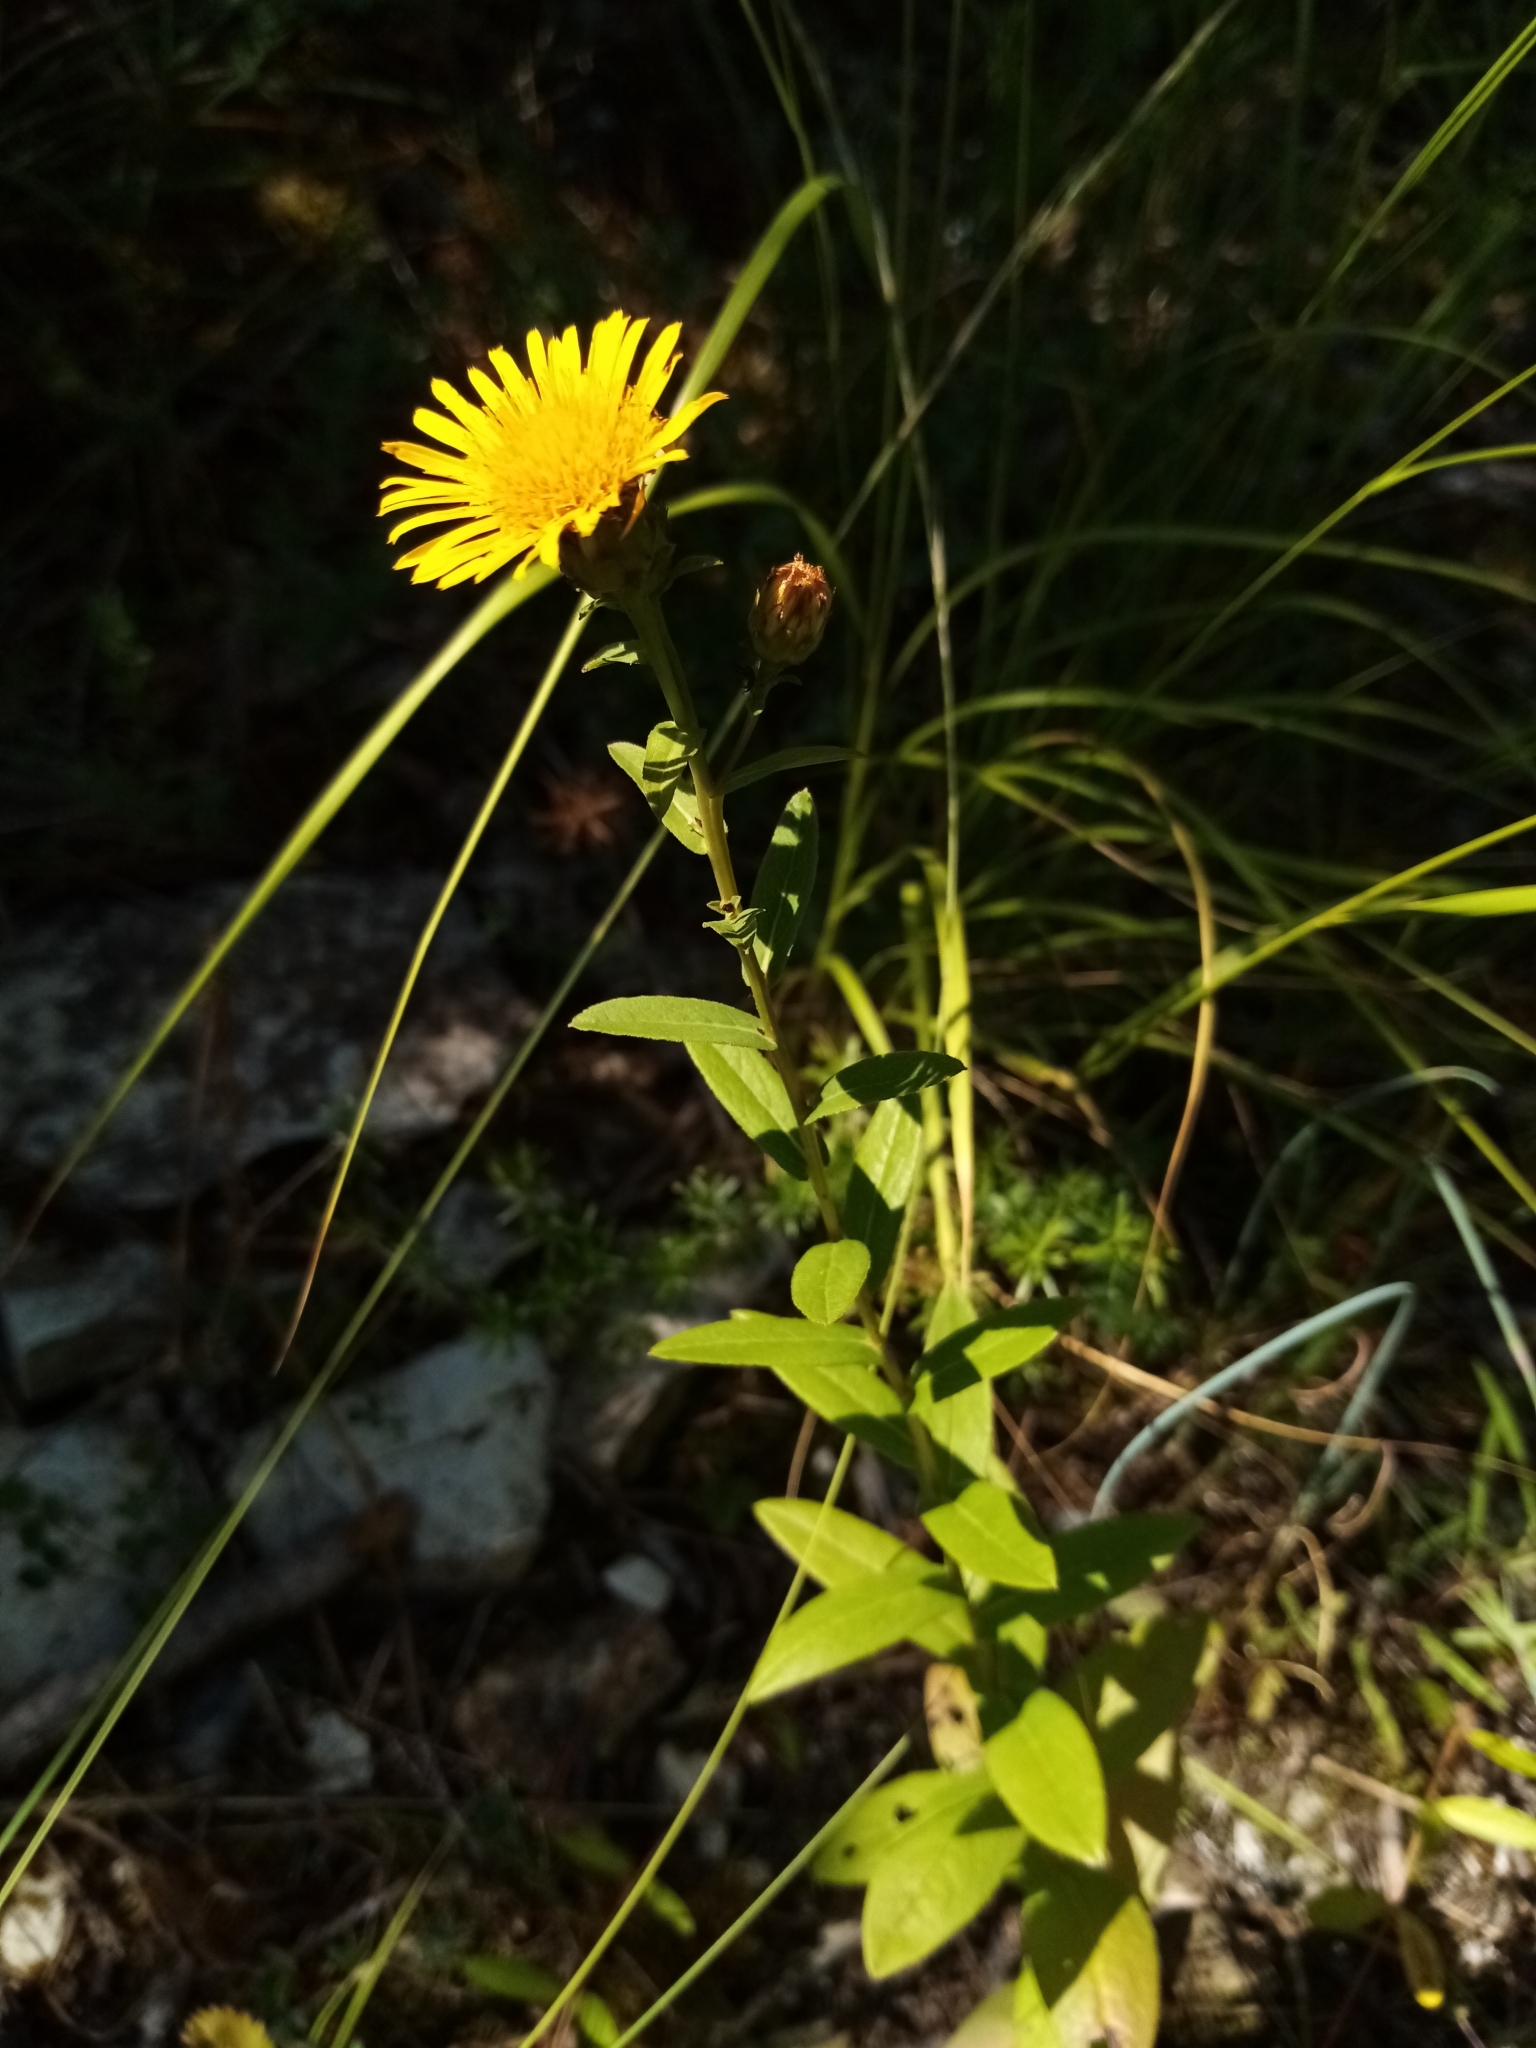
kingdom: Plantae
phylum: Tracheophyta
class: Magnoliopsida
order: Asterales
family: Asteraceae
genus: Pentanema
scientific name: Pentanema asperum
